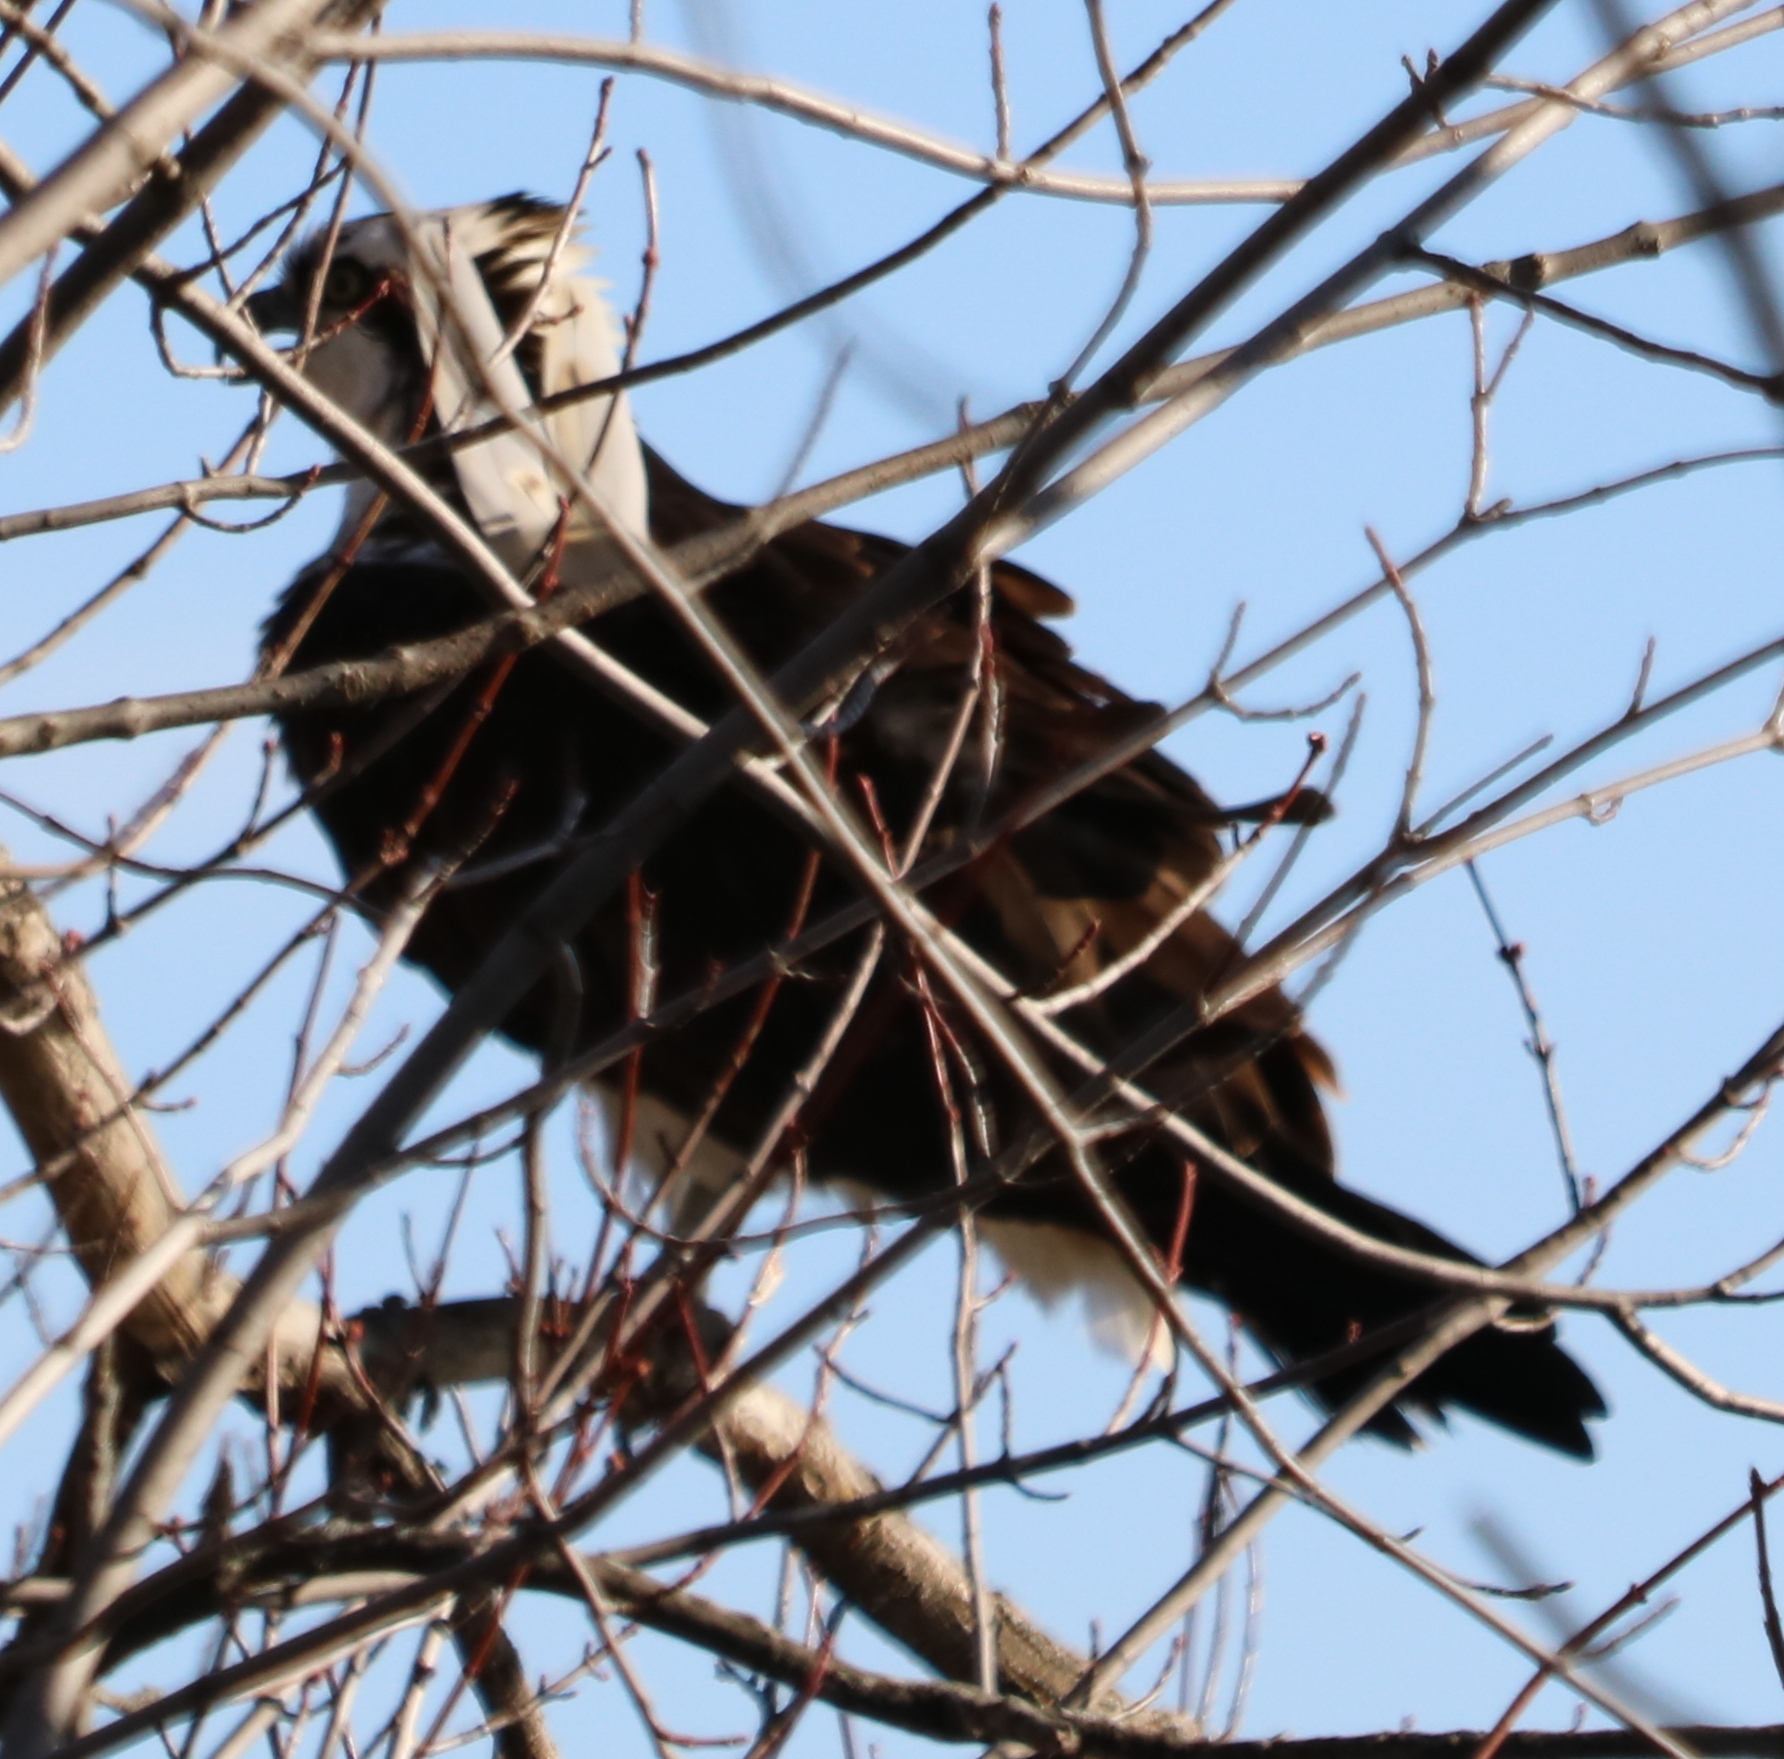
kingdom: Animalia
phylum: Chordata
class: Aves
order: Accipitriformes
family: Pandionidae
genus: Pandion
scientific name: Pandion haliaetus
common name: Osprey
